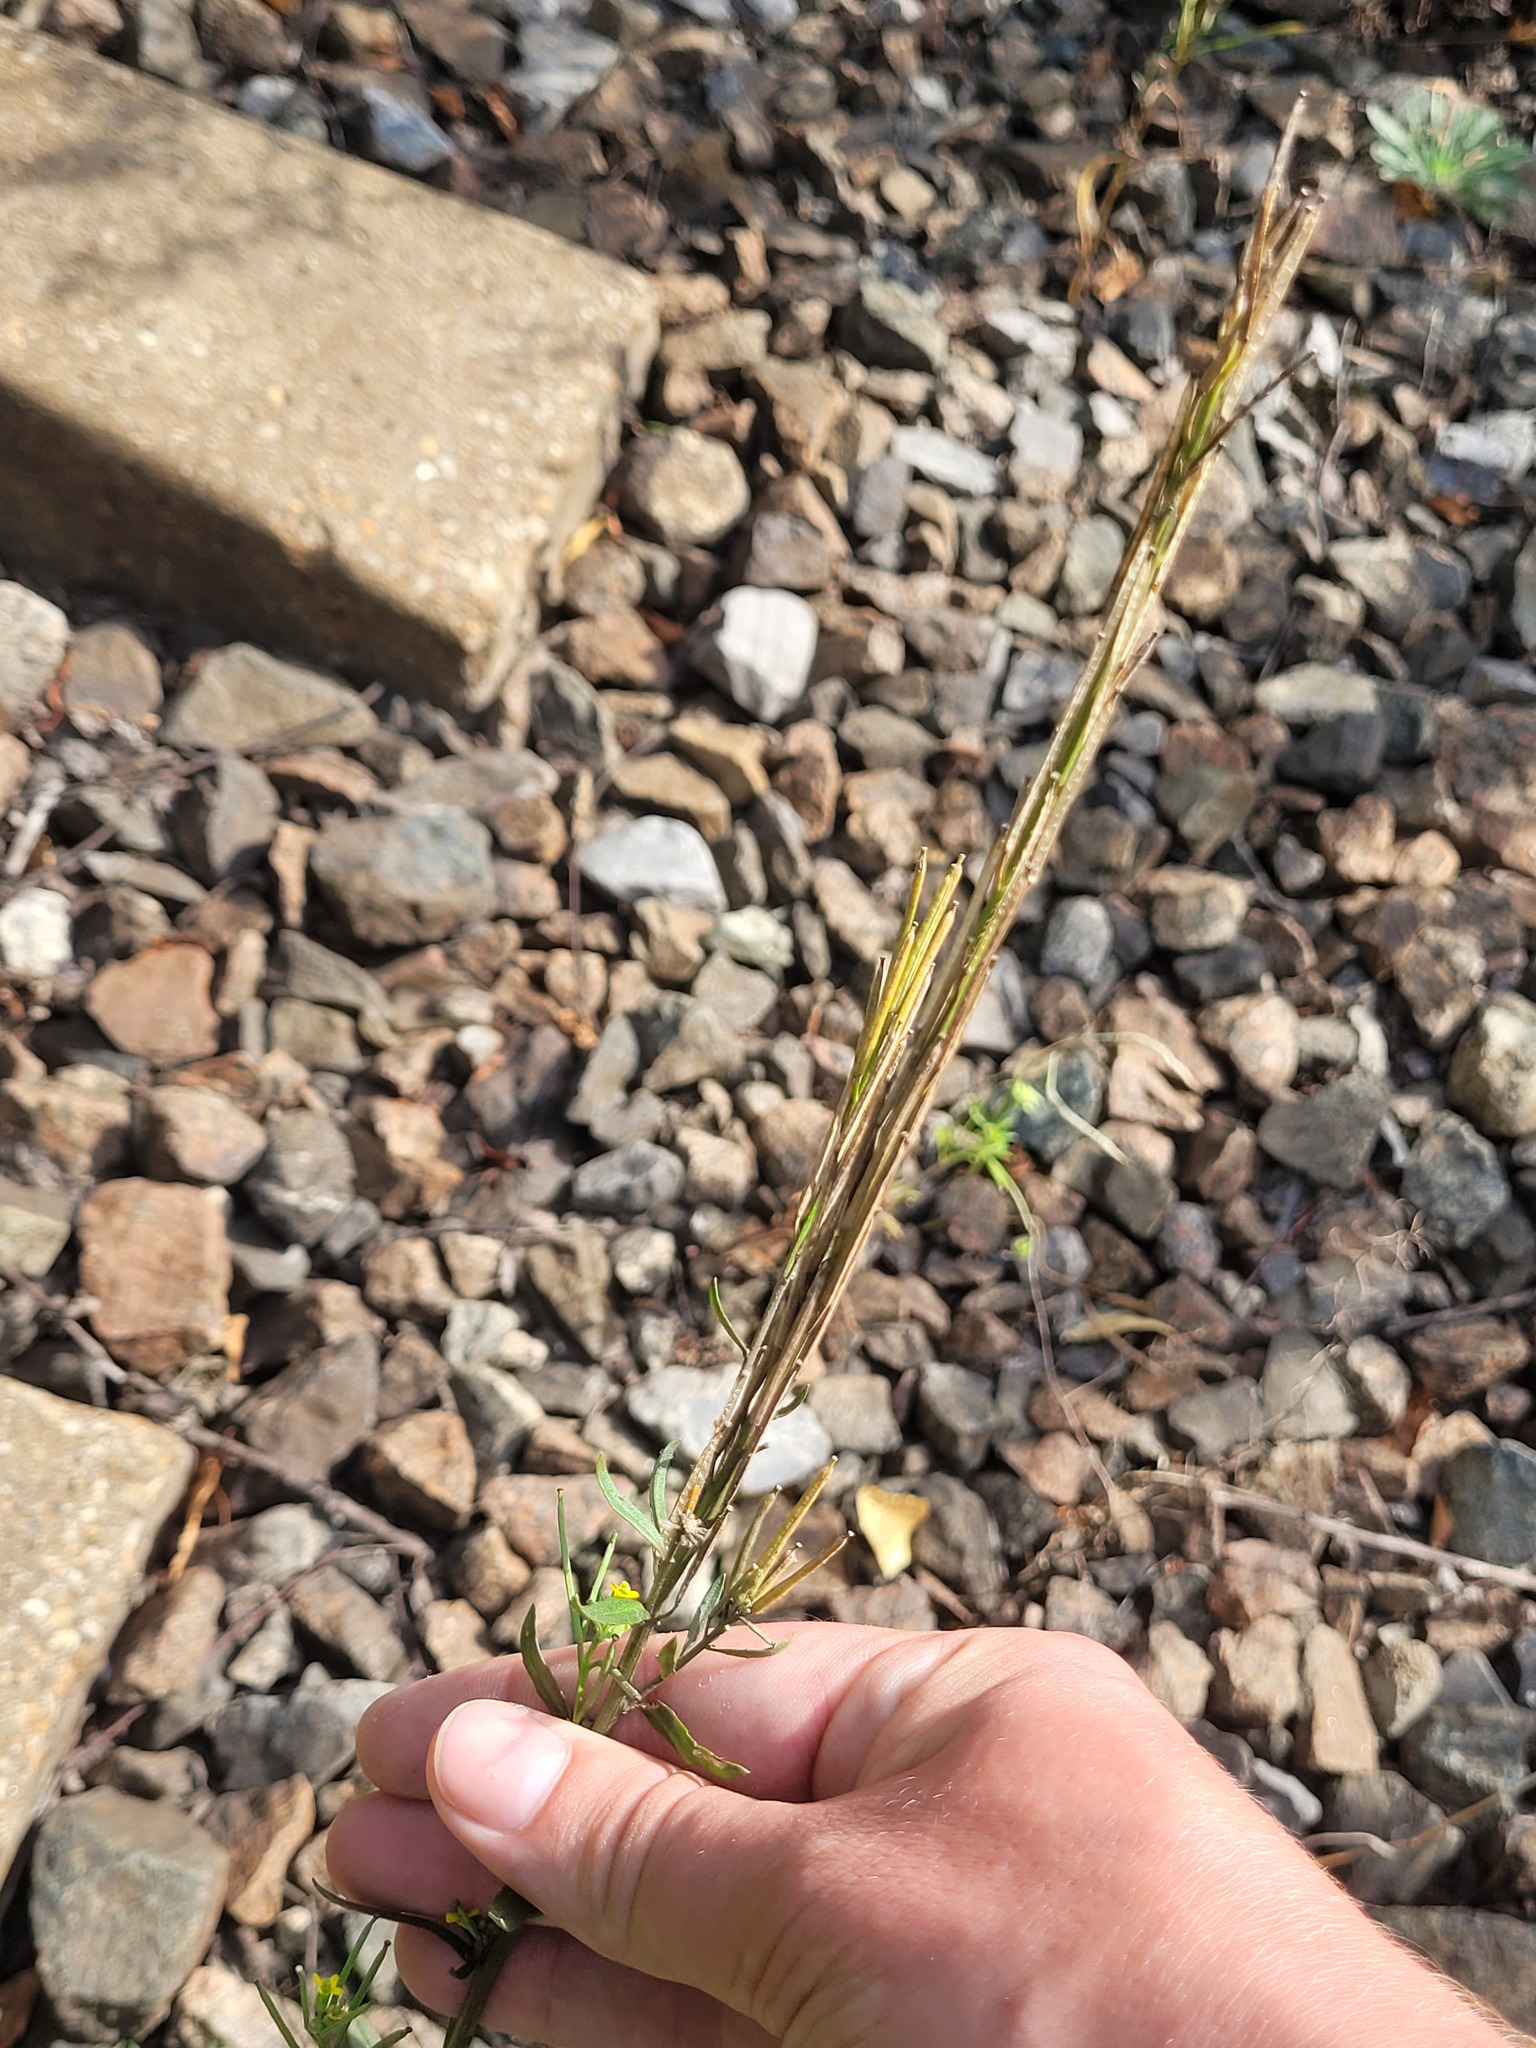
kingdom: Plantae
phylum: Tracheophyta
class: Magnoliopsida
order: Brassicales
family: Brassicaceae
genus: Erysimum
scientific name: Erysimum hieraciifolium
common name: European wallflower
